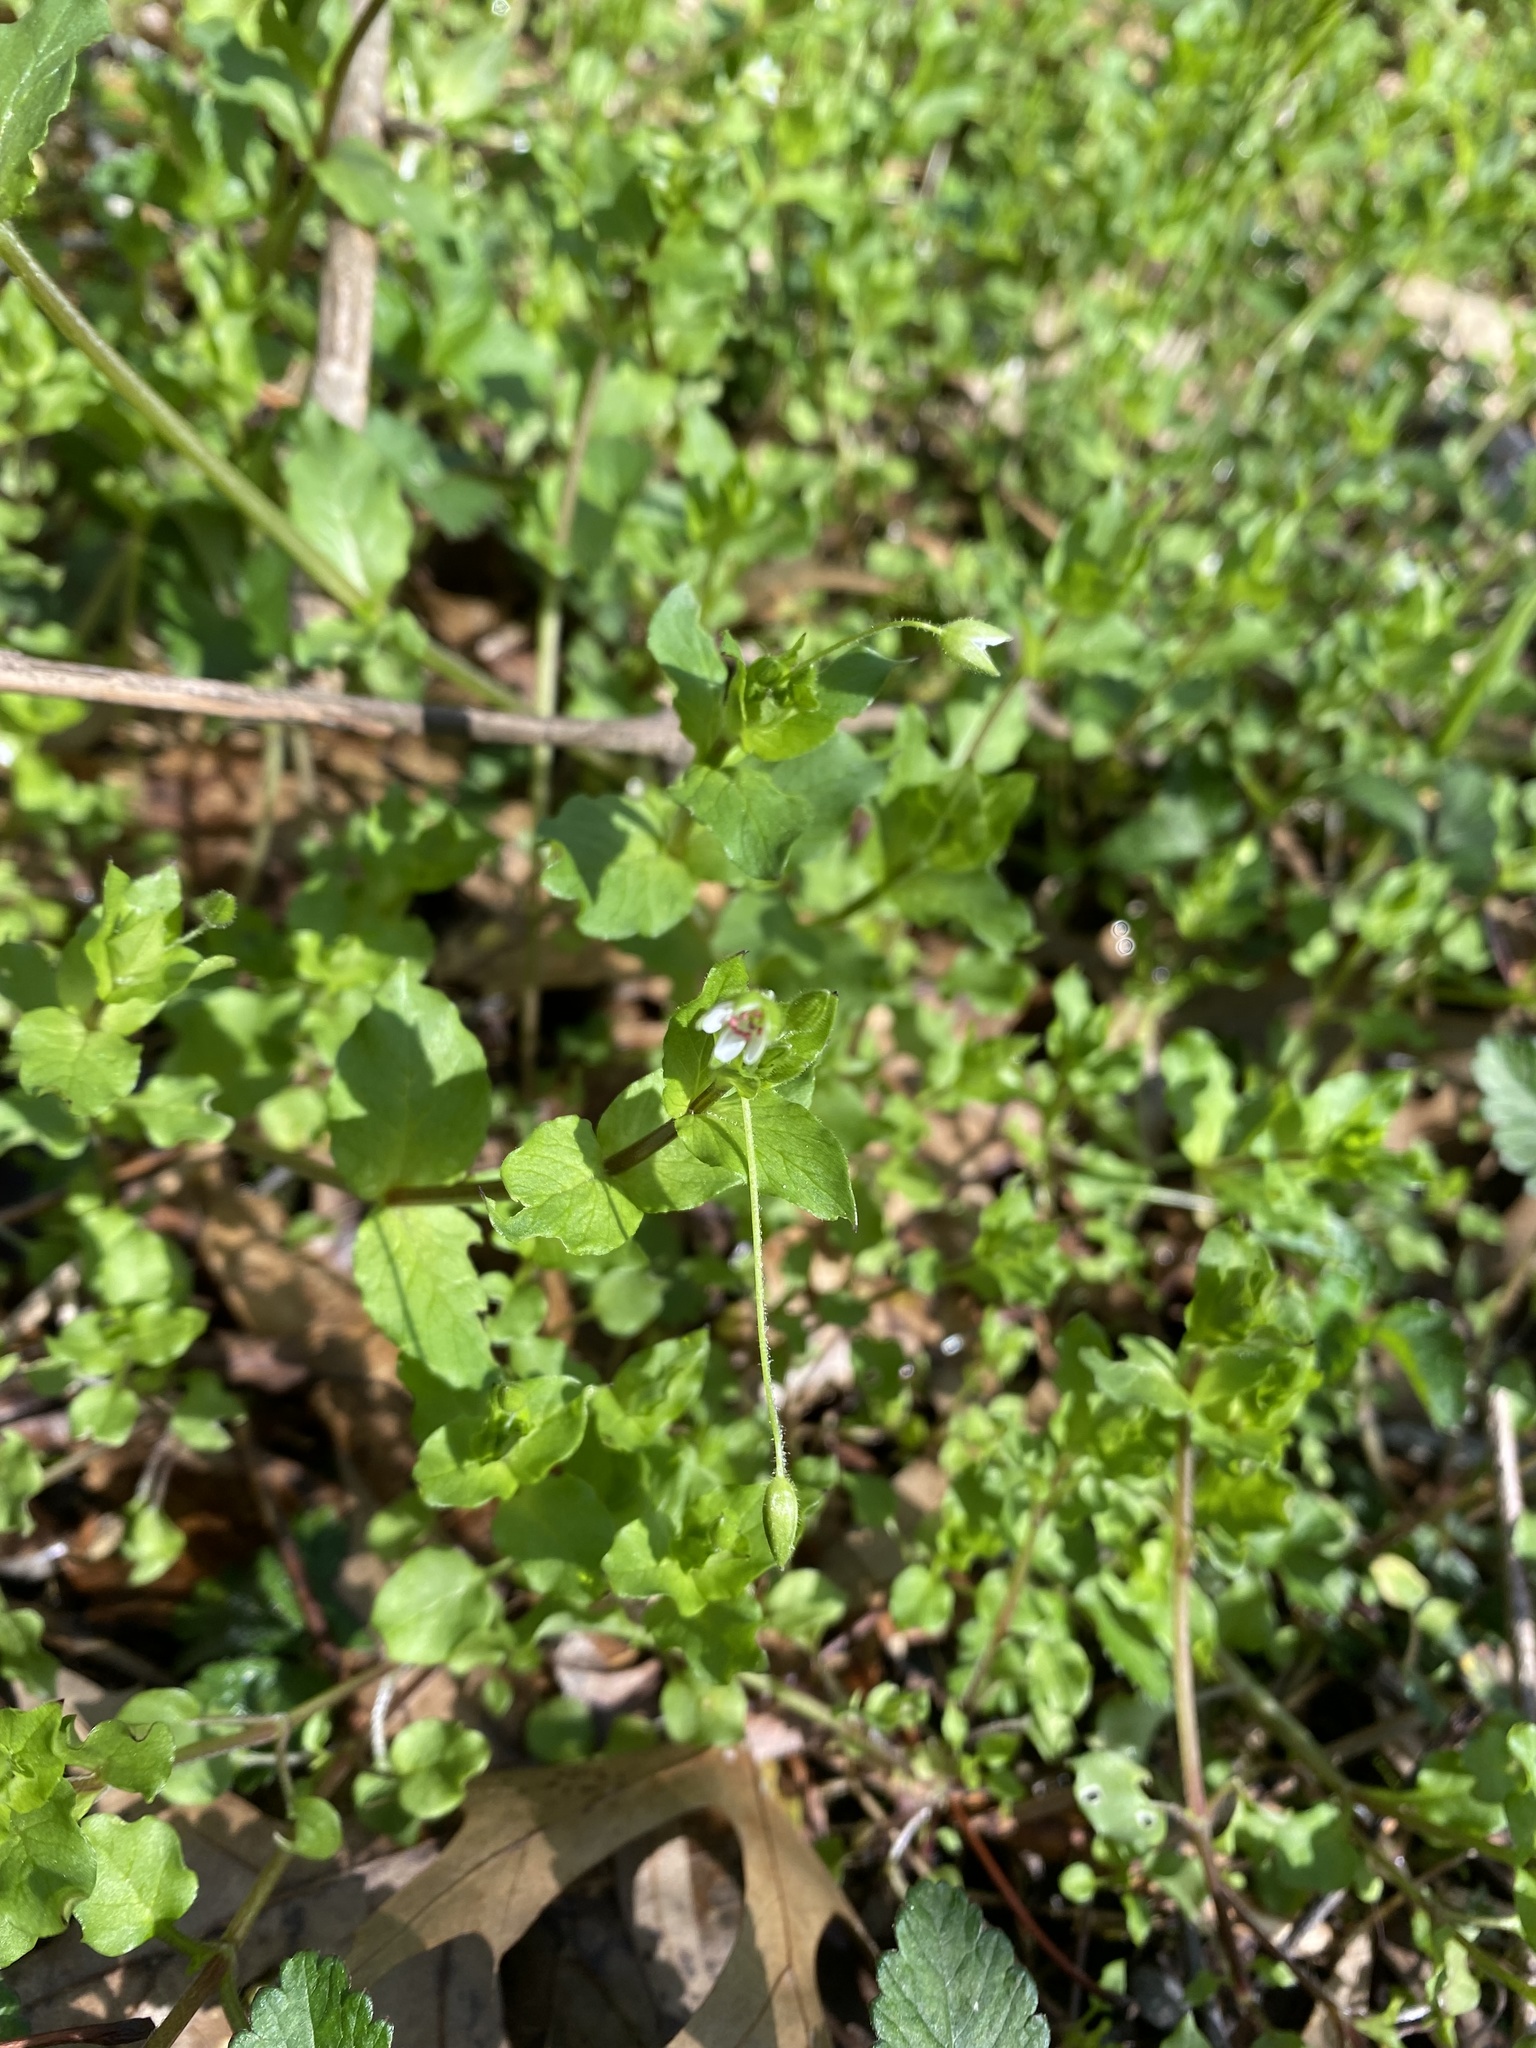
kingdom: Plantae
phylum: Tracheophyta
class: Magnoliopsida
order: Caryophyllales
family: Caryophyllaceae
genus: Stellaria
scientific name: Stellaria media
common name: Common chickweed
